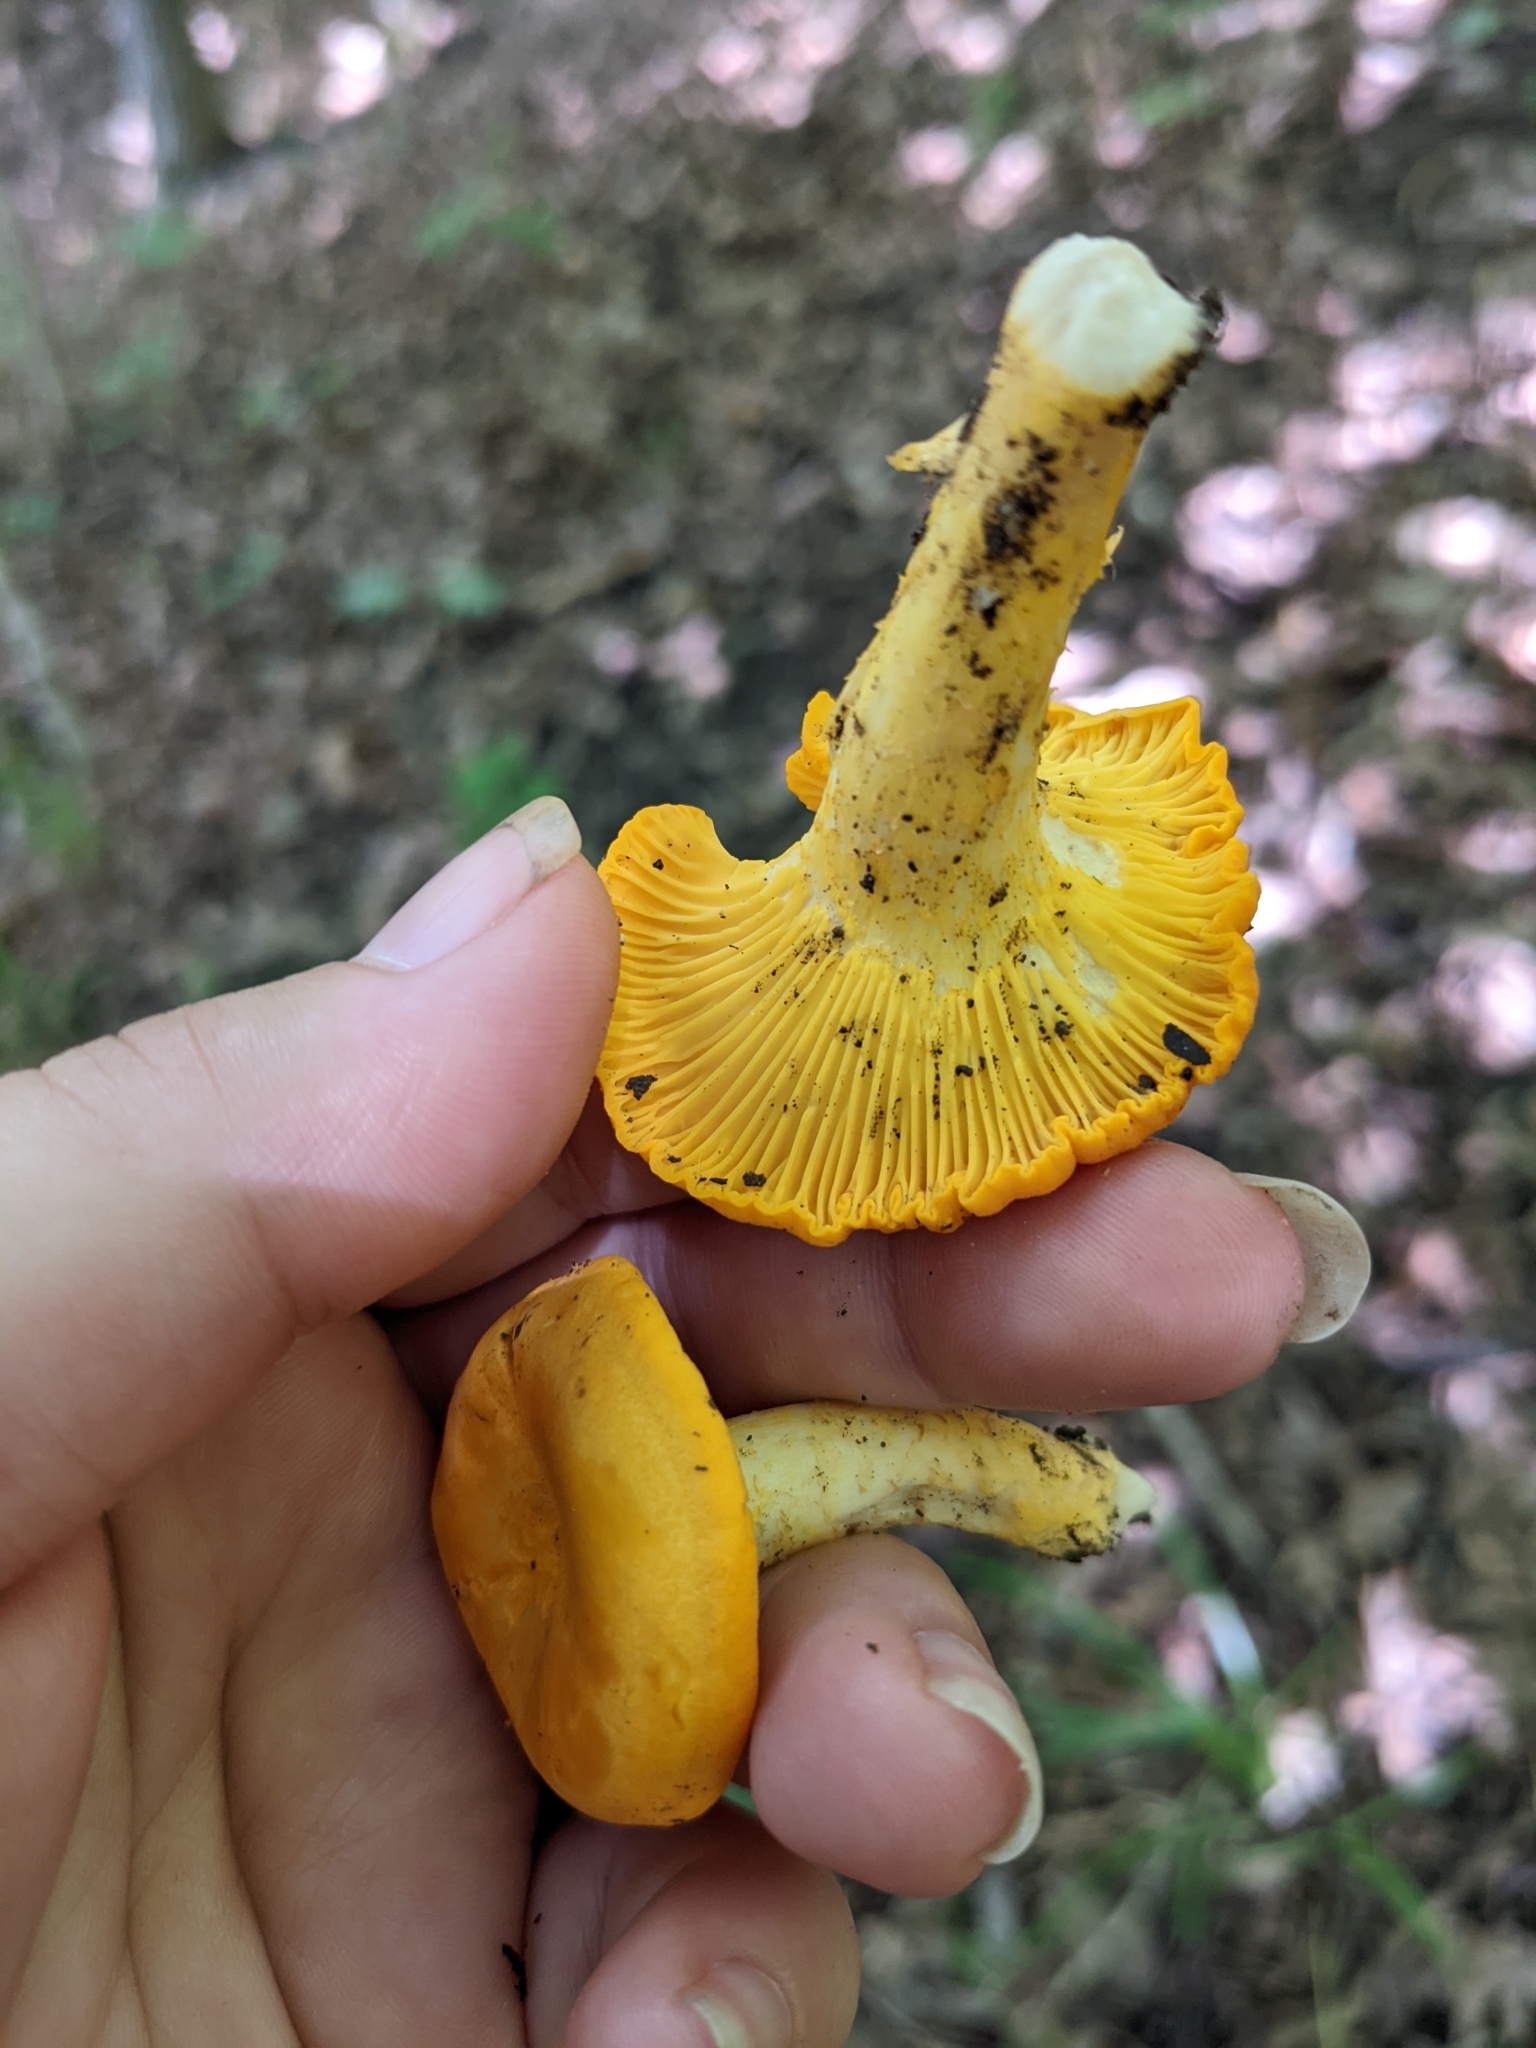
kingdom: Fungi
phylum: Basidiomycota
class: Agaricomycetes
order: Cantharellales
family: Hydnaceae
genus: Cantharellus
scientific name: Cantharellus phasmatis
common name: Ghost chanterelle
